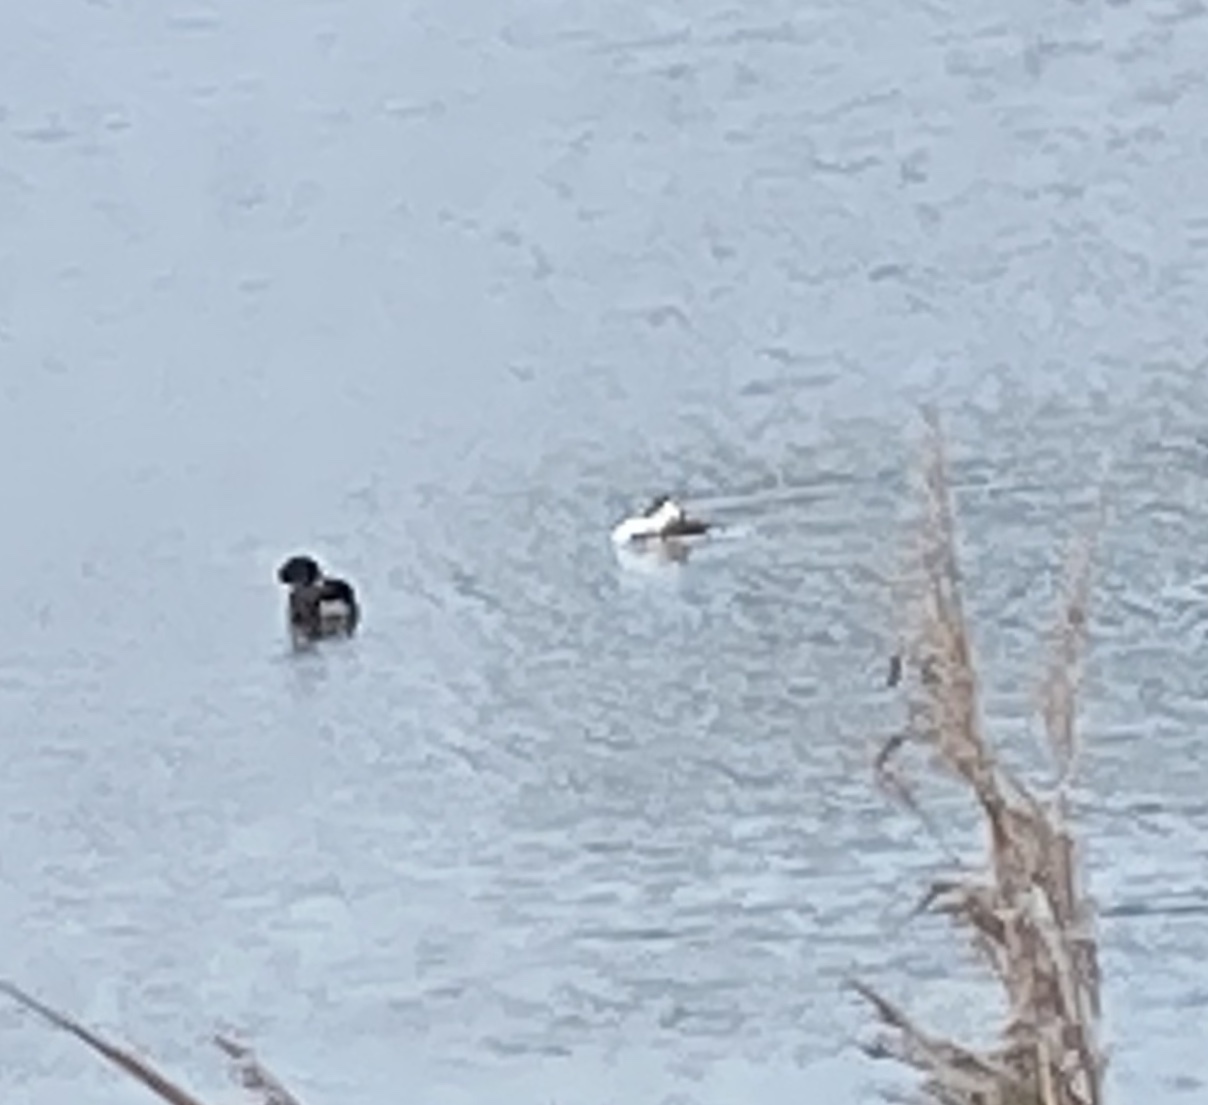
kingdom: Animalia
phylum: Chordata
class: Aves
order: Podicipediformes
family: Podicipedidae
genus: Podiceps
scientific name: Podiceps cristatus
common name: Great crested grebe
